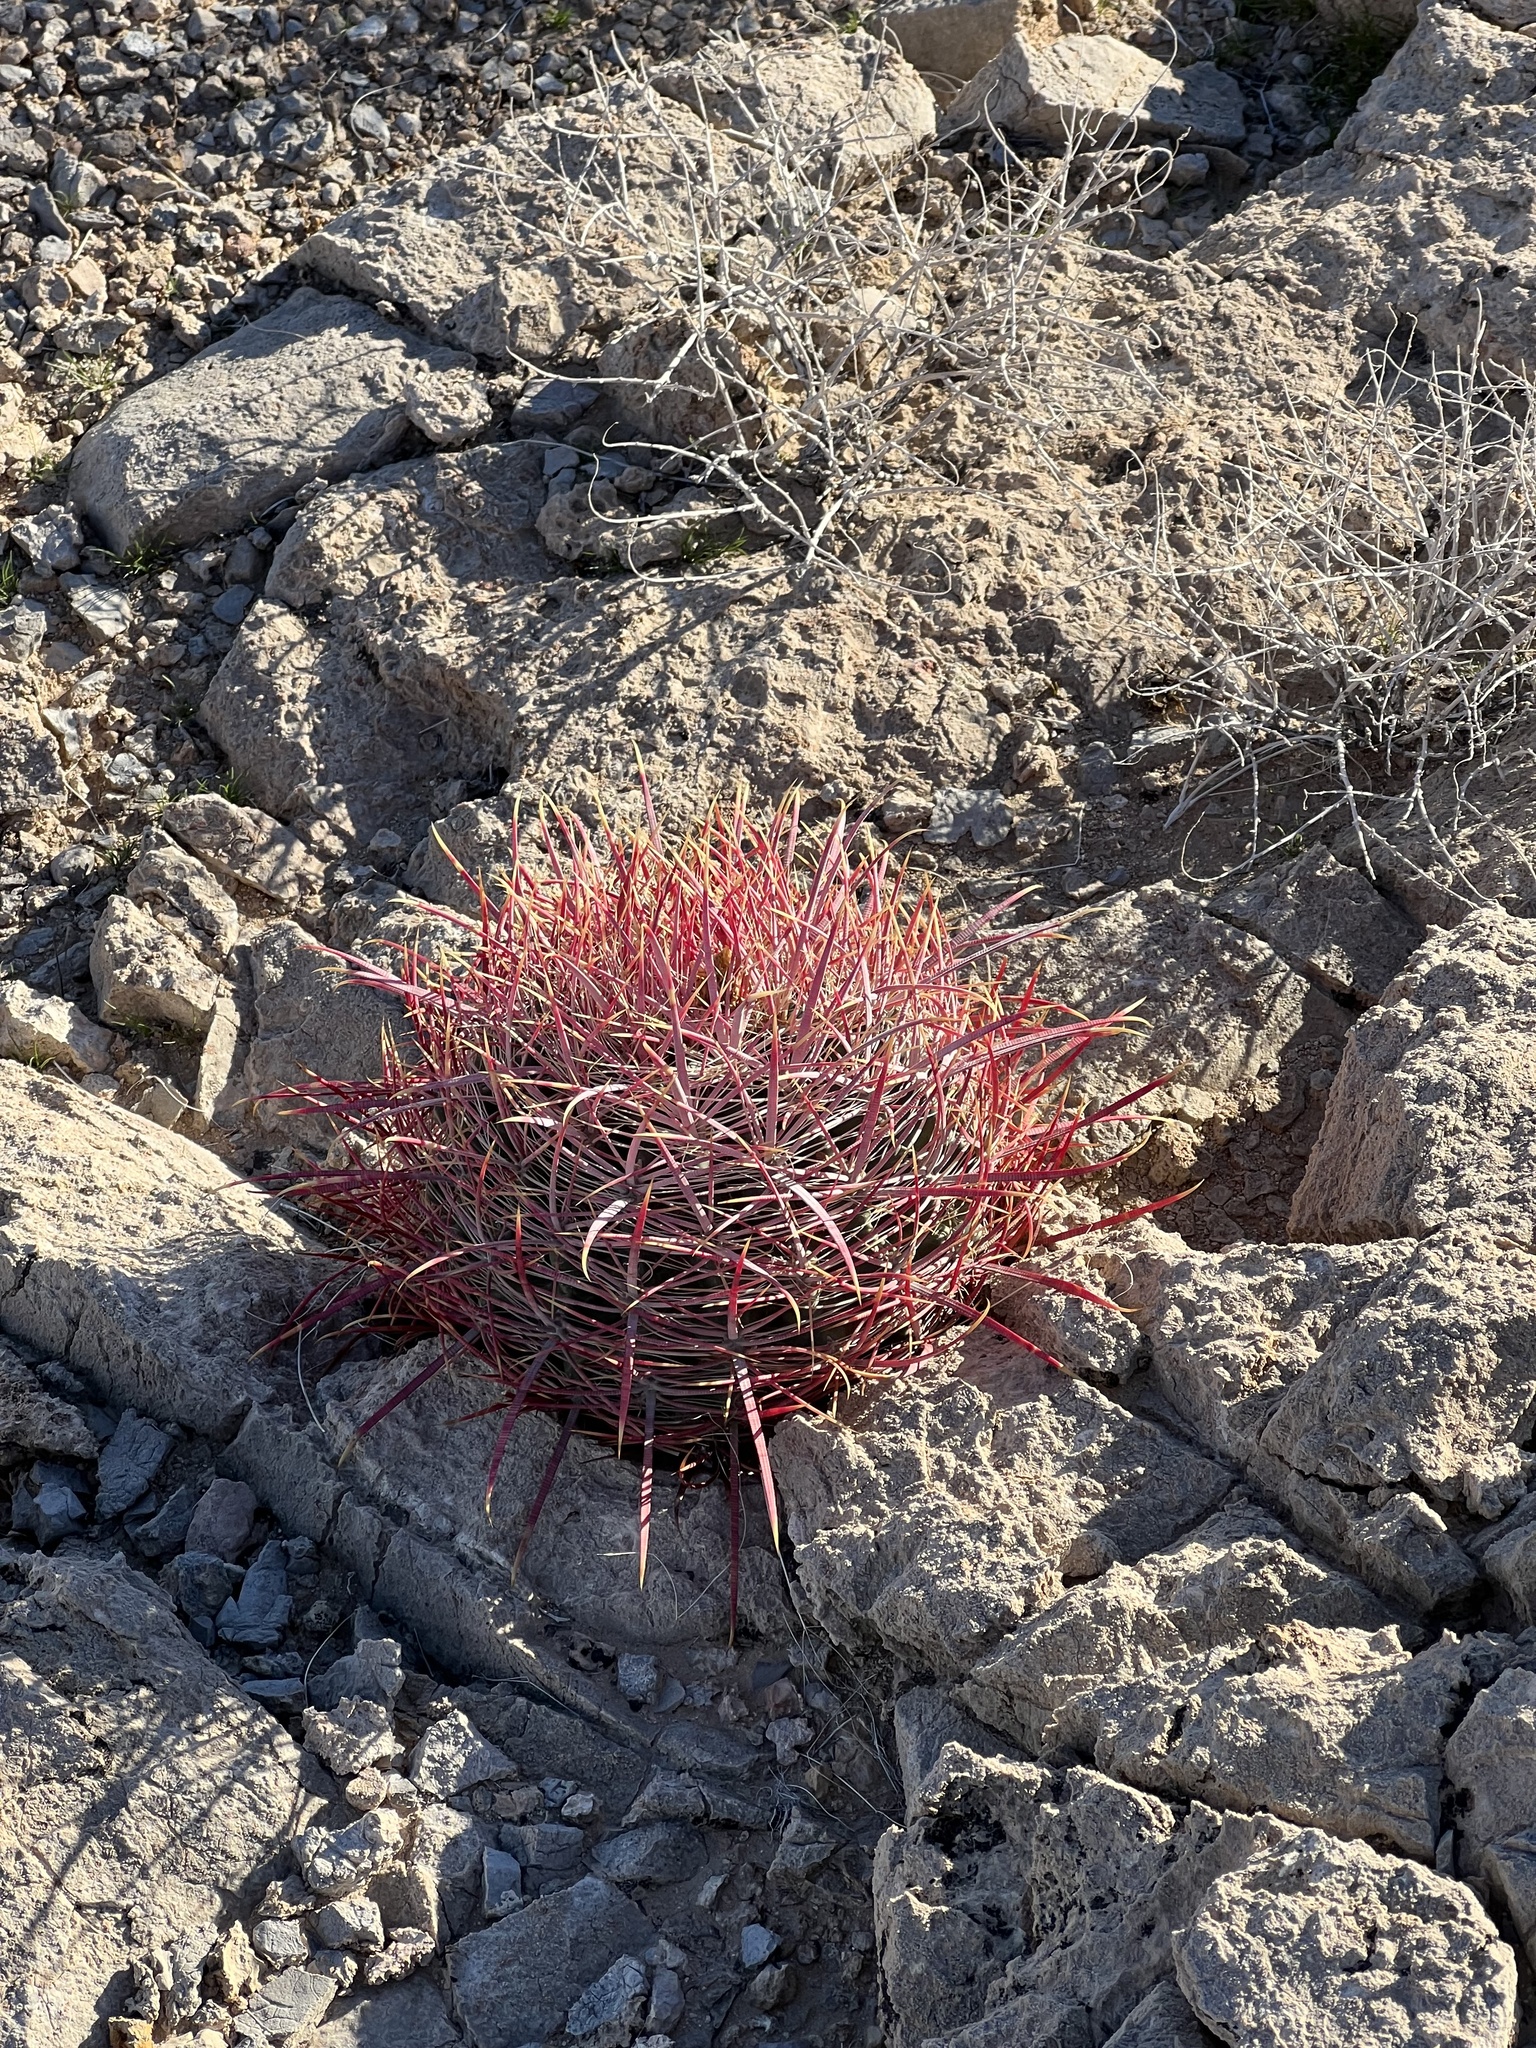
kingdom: Plantae
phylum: Tracheophyta
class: Magnoliopsida
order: Caryophyllales
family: Cactaceae
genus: Ferocactus
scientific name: Ferocactus cylindraceus
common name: California barrel cactus
